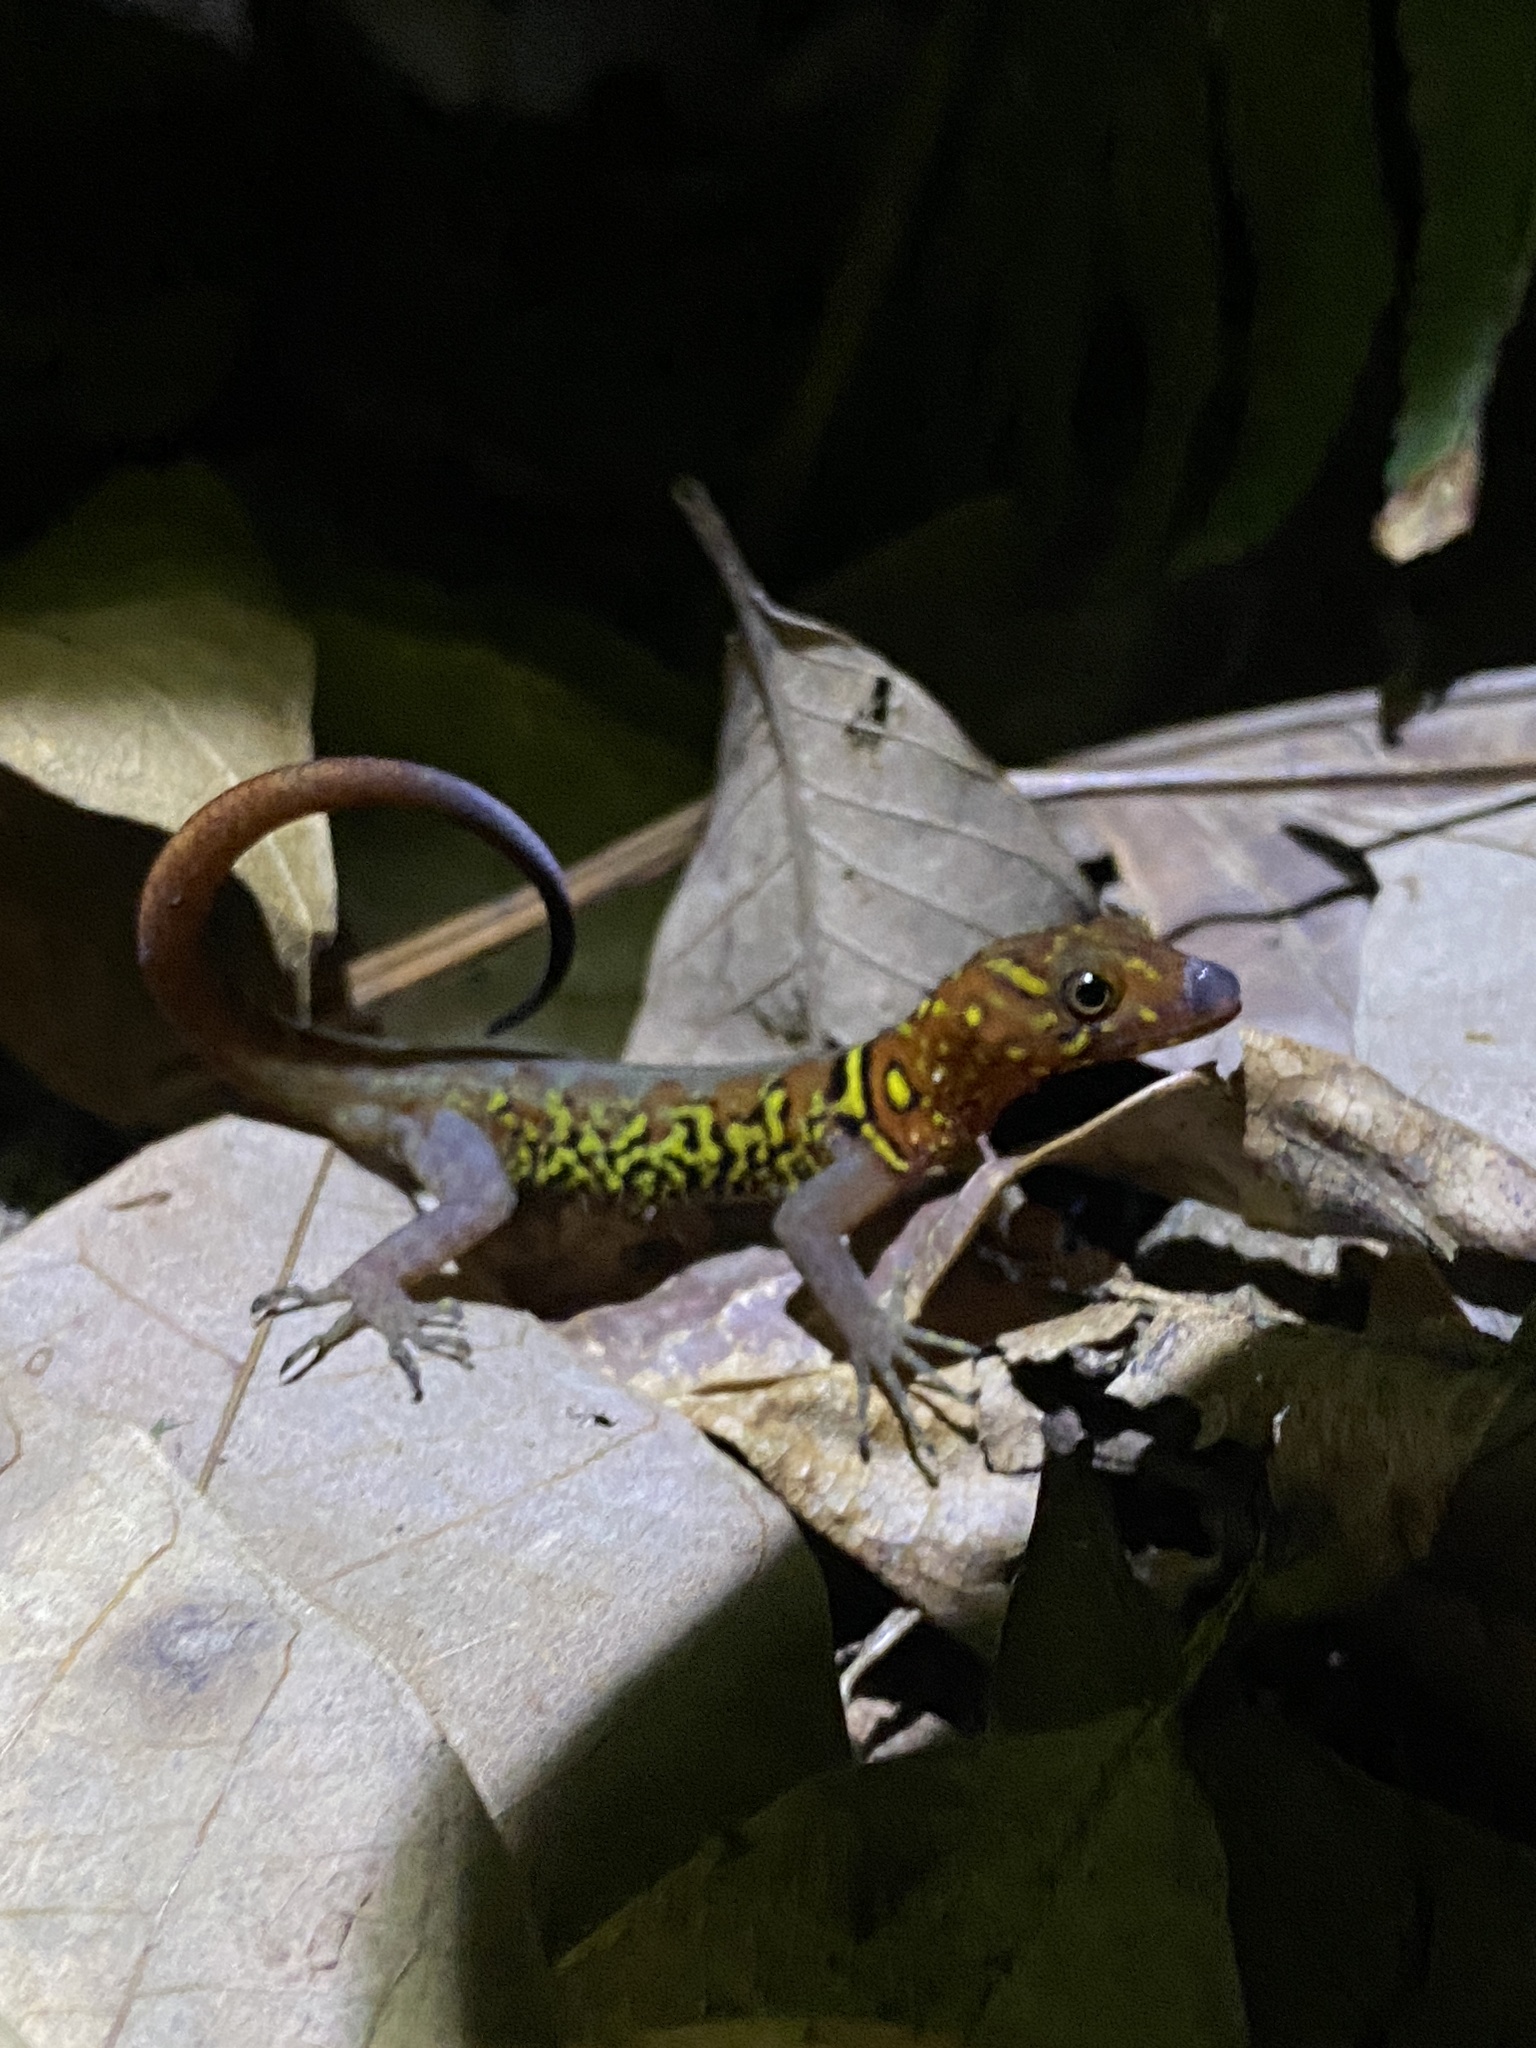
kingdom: Animalia
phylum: Chordata
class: Squamata
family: Sphaerodactylidae
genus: Gonatodes
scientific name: Gonatodes ceciliae
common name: Brilliant south american gecko
